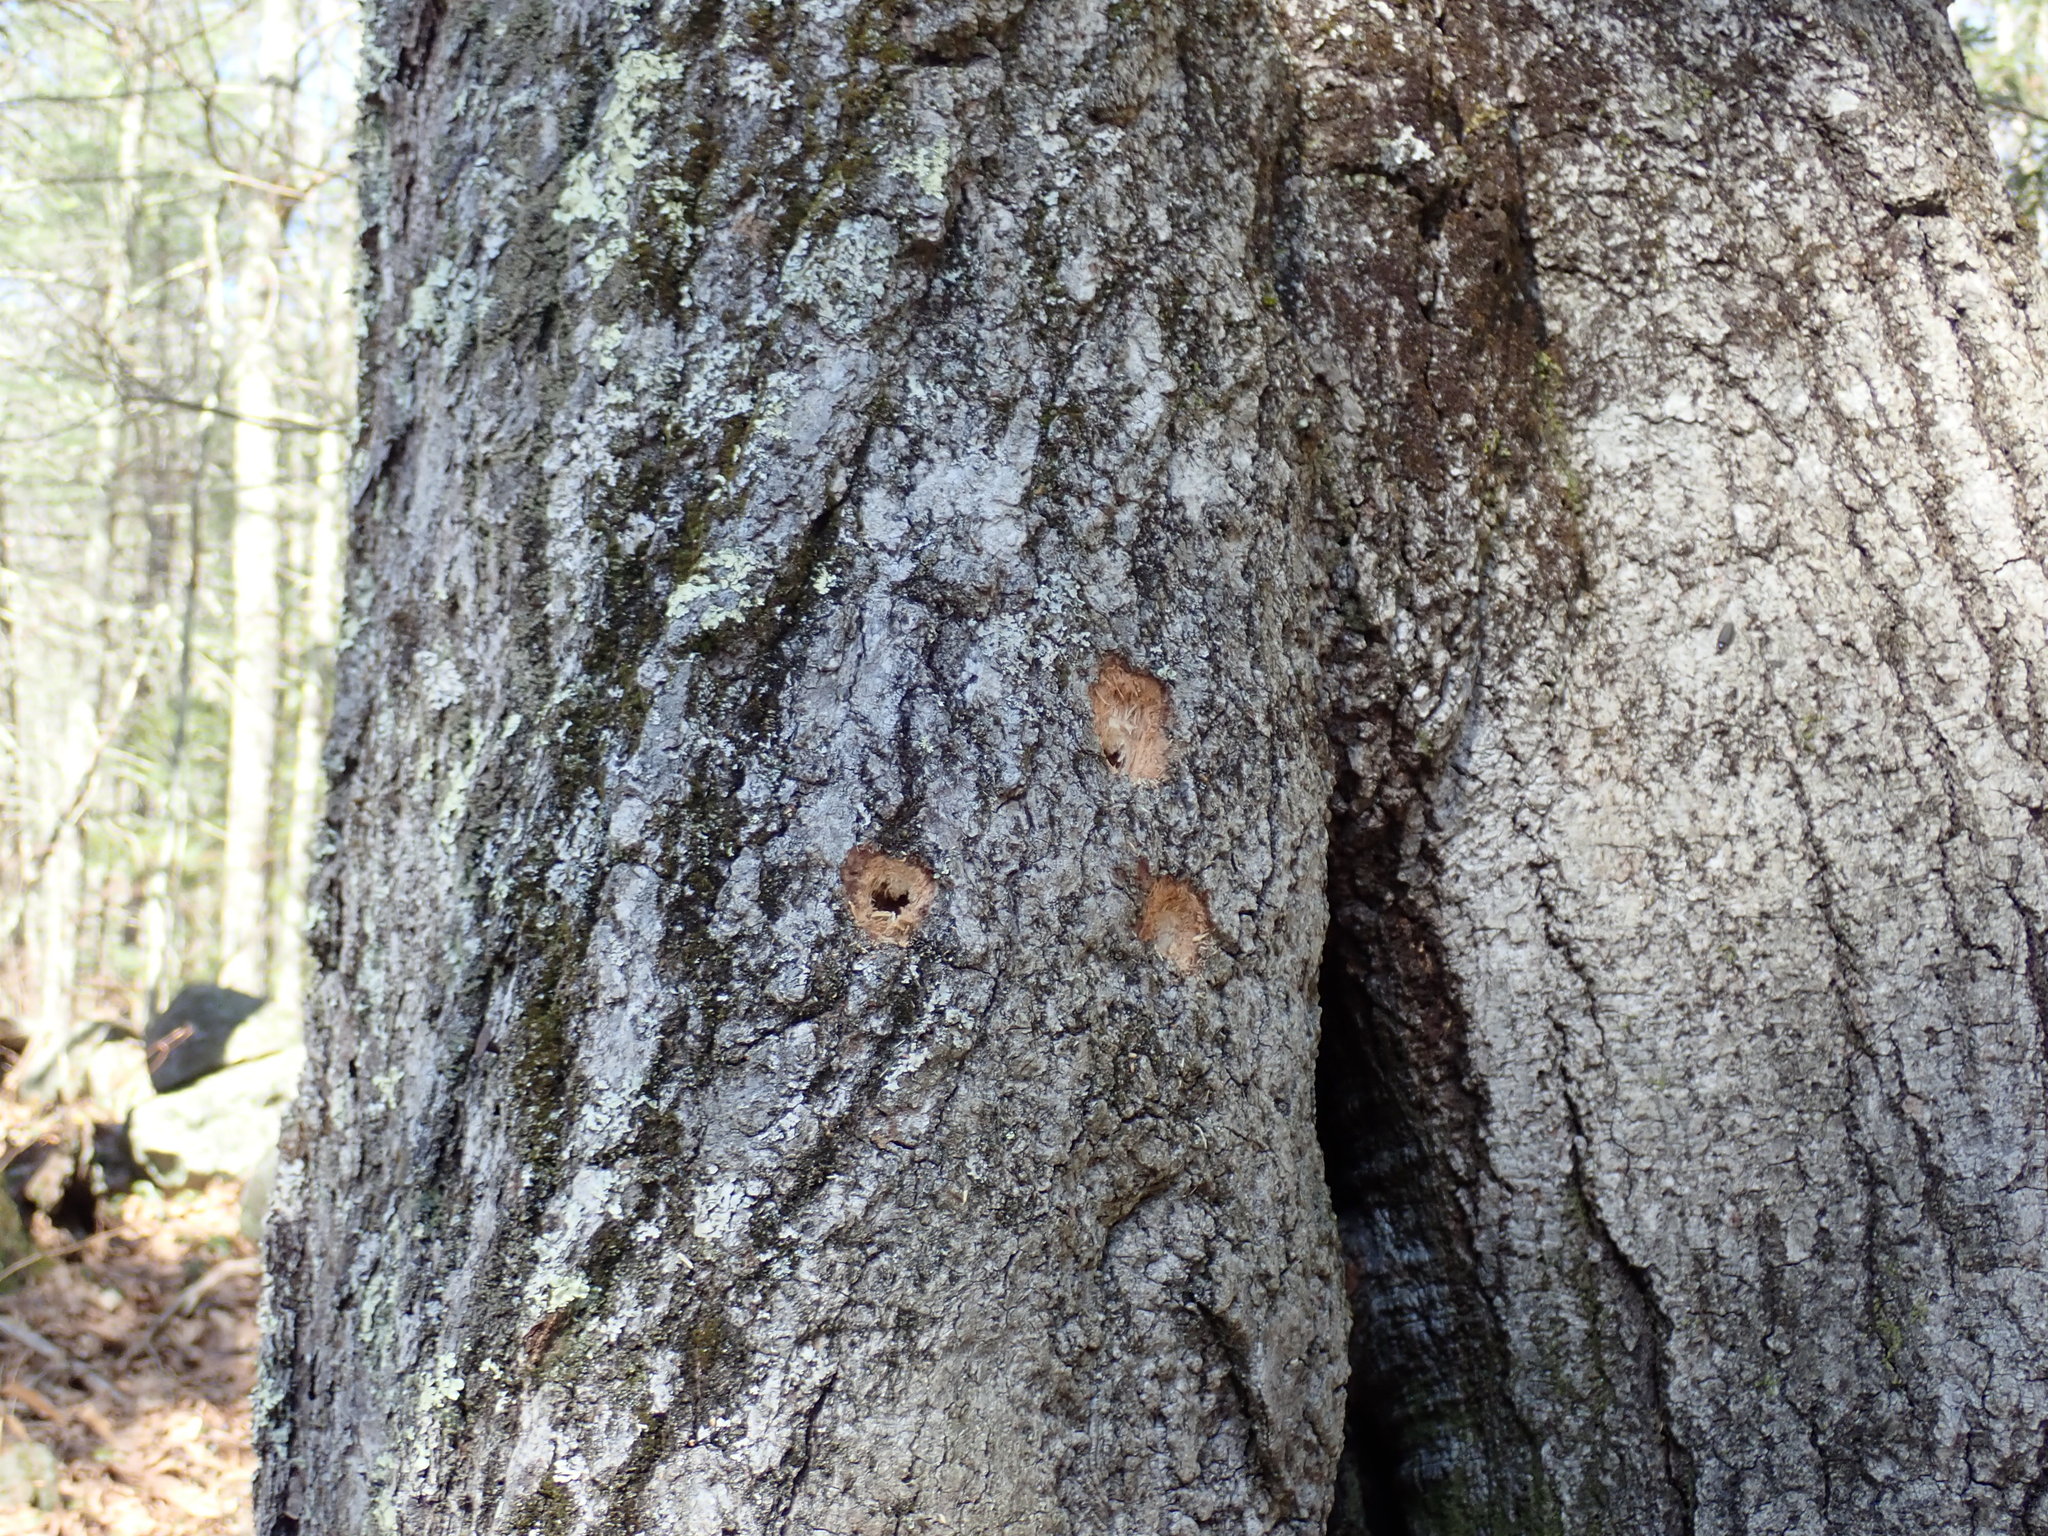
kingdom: Animalia
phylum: Chordata
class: Aves
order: Piciformes
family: Picidae
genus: Dryocopus
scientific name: Dryocopus pileatus
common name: Pileated woodpecker
